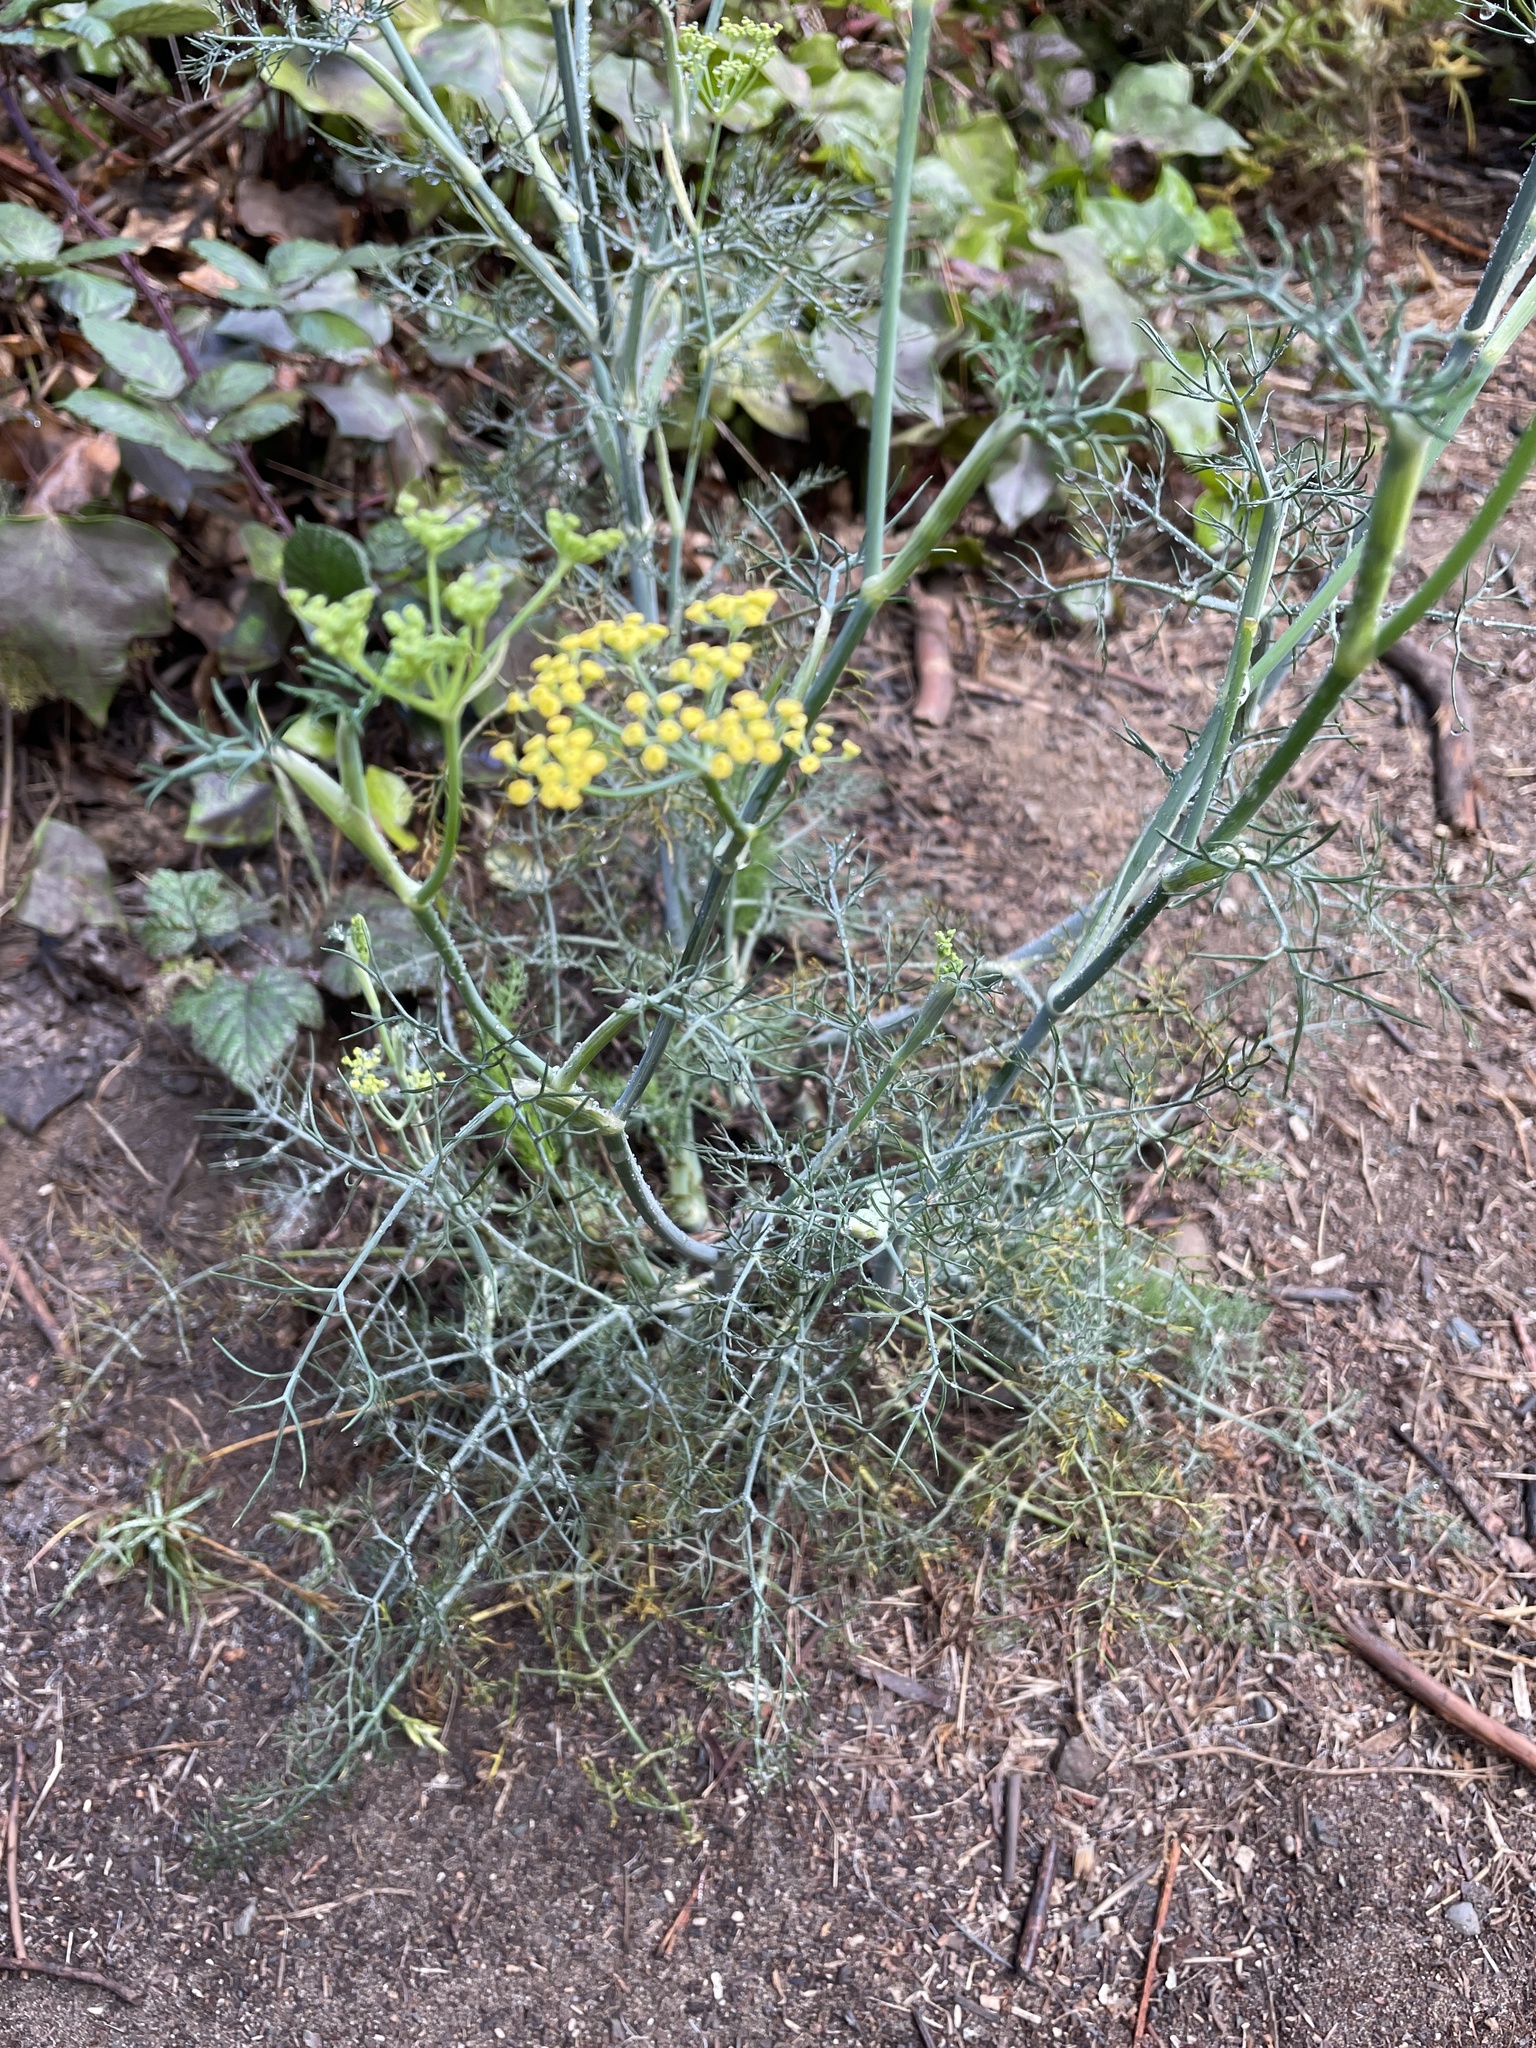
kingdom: Plantae
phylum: Tracheophyta
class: Magnoliopsida
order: Apiales
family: Apiaceae
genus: Foeniculum
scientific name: Foeniculum vulgare
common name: Fennel
